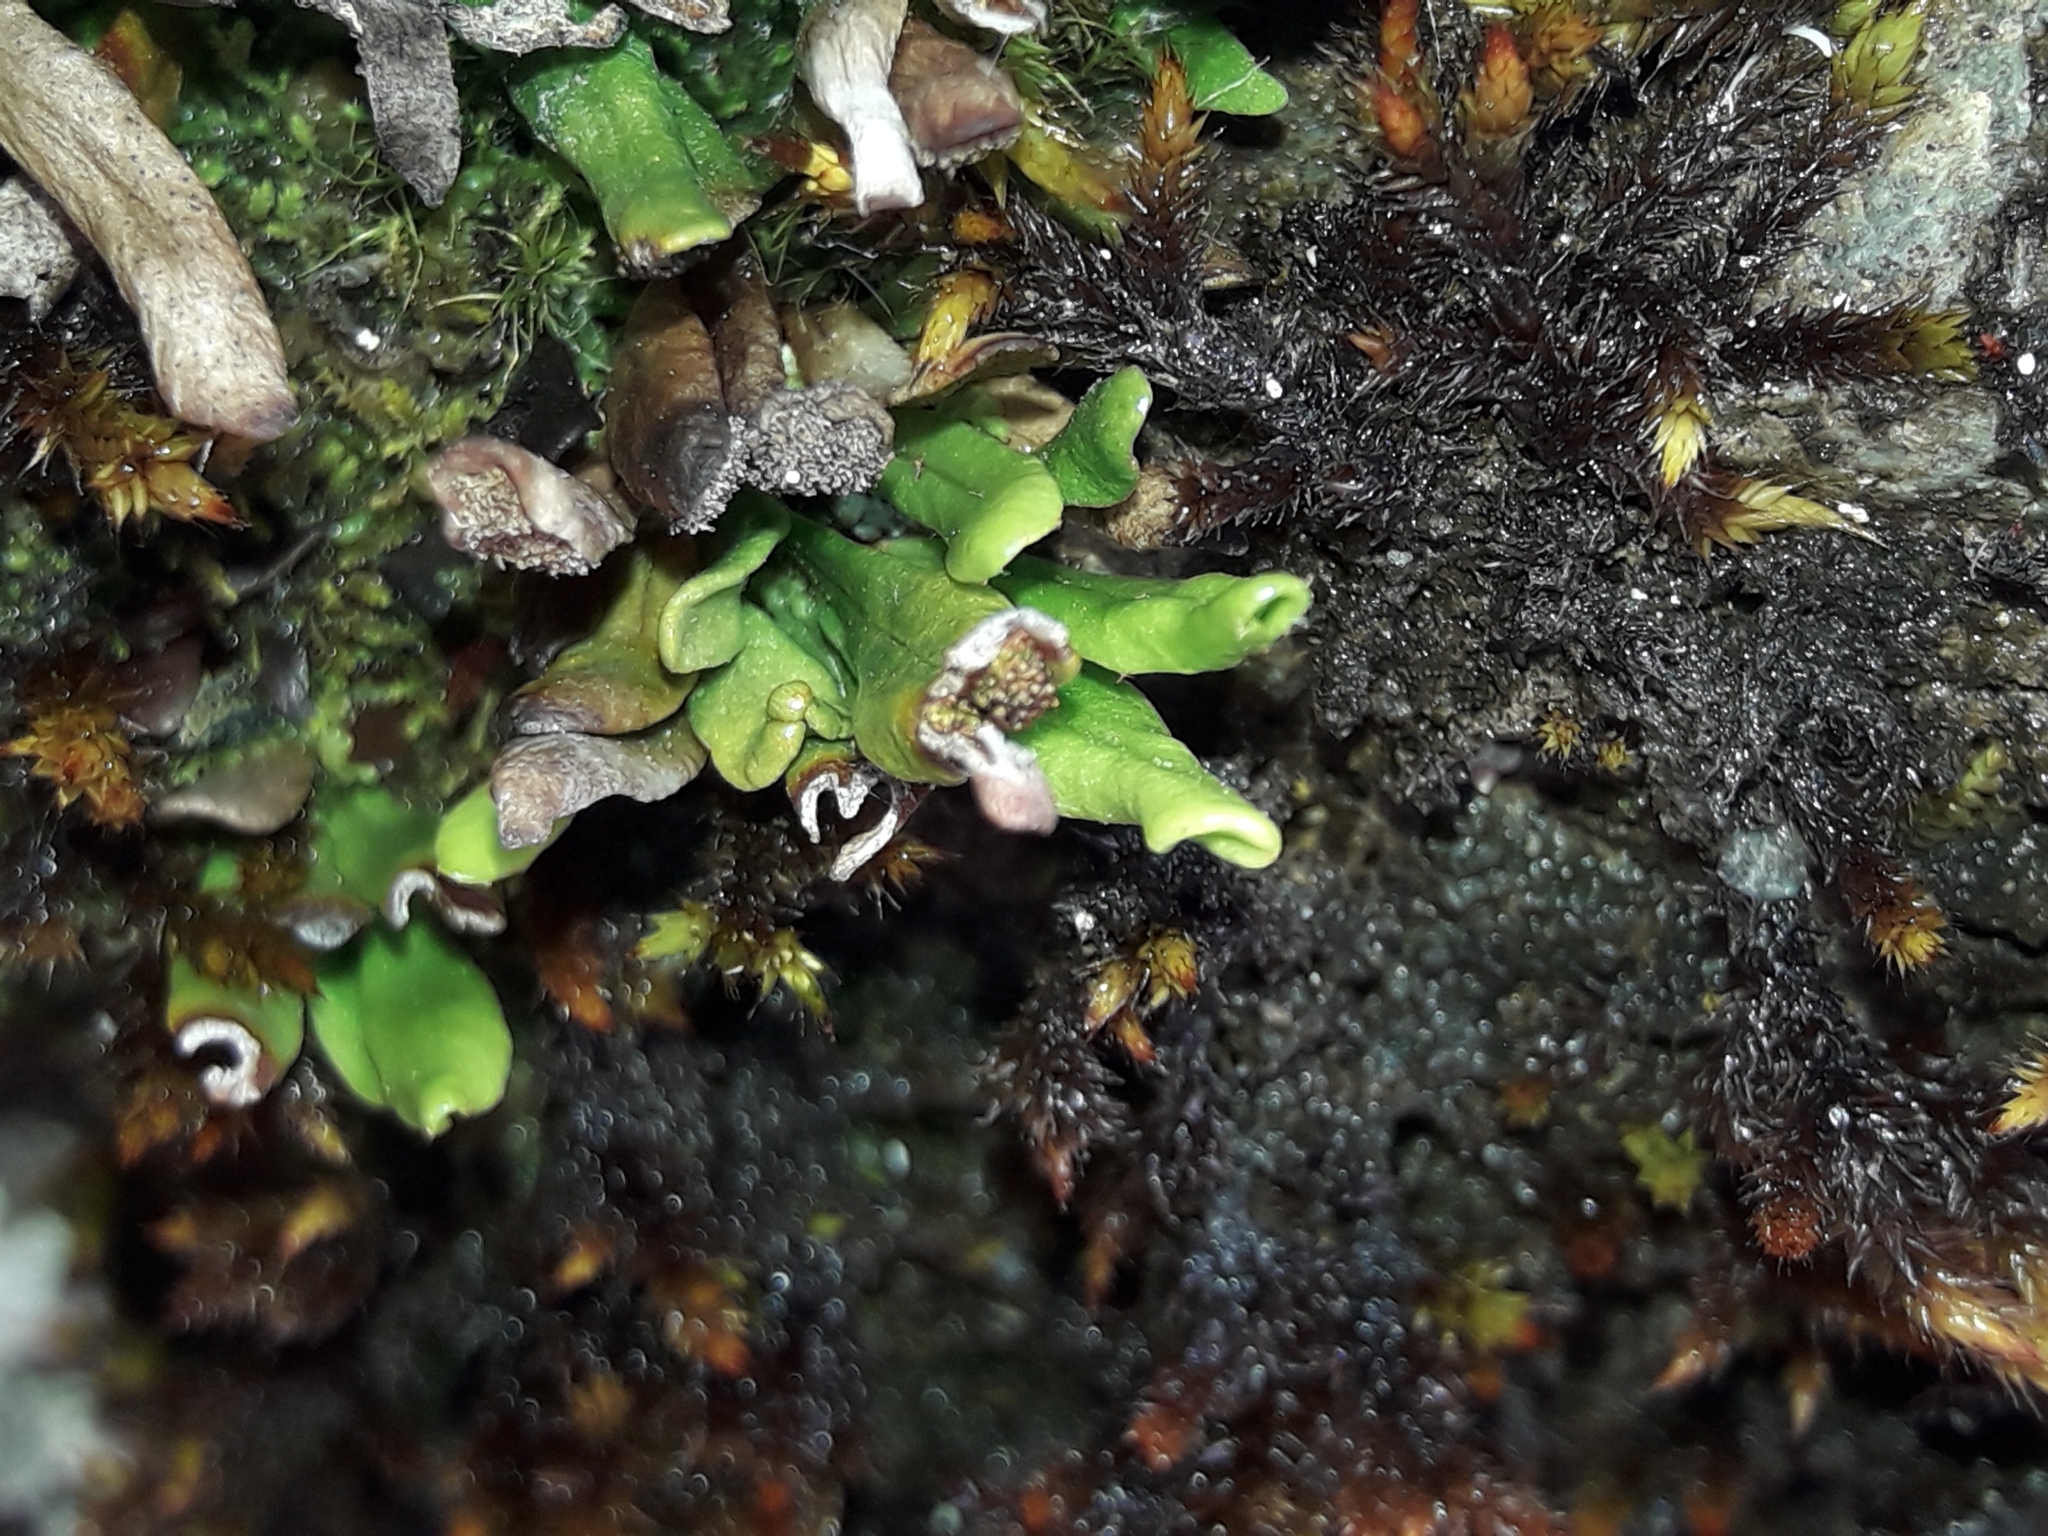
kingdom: Plantae
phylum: Tracheophyta
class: Polypodiopsida
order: Polypodiales
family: Polypodiaceae
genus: Notogrammitis
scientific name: Notogrammitis crassior
